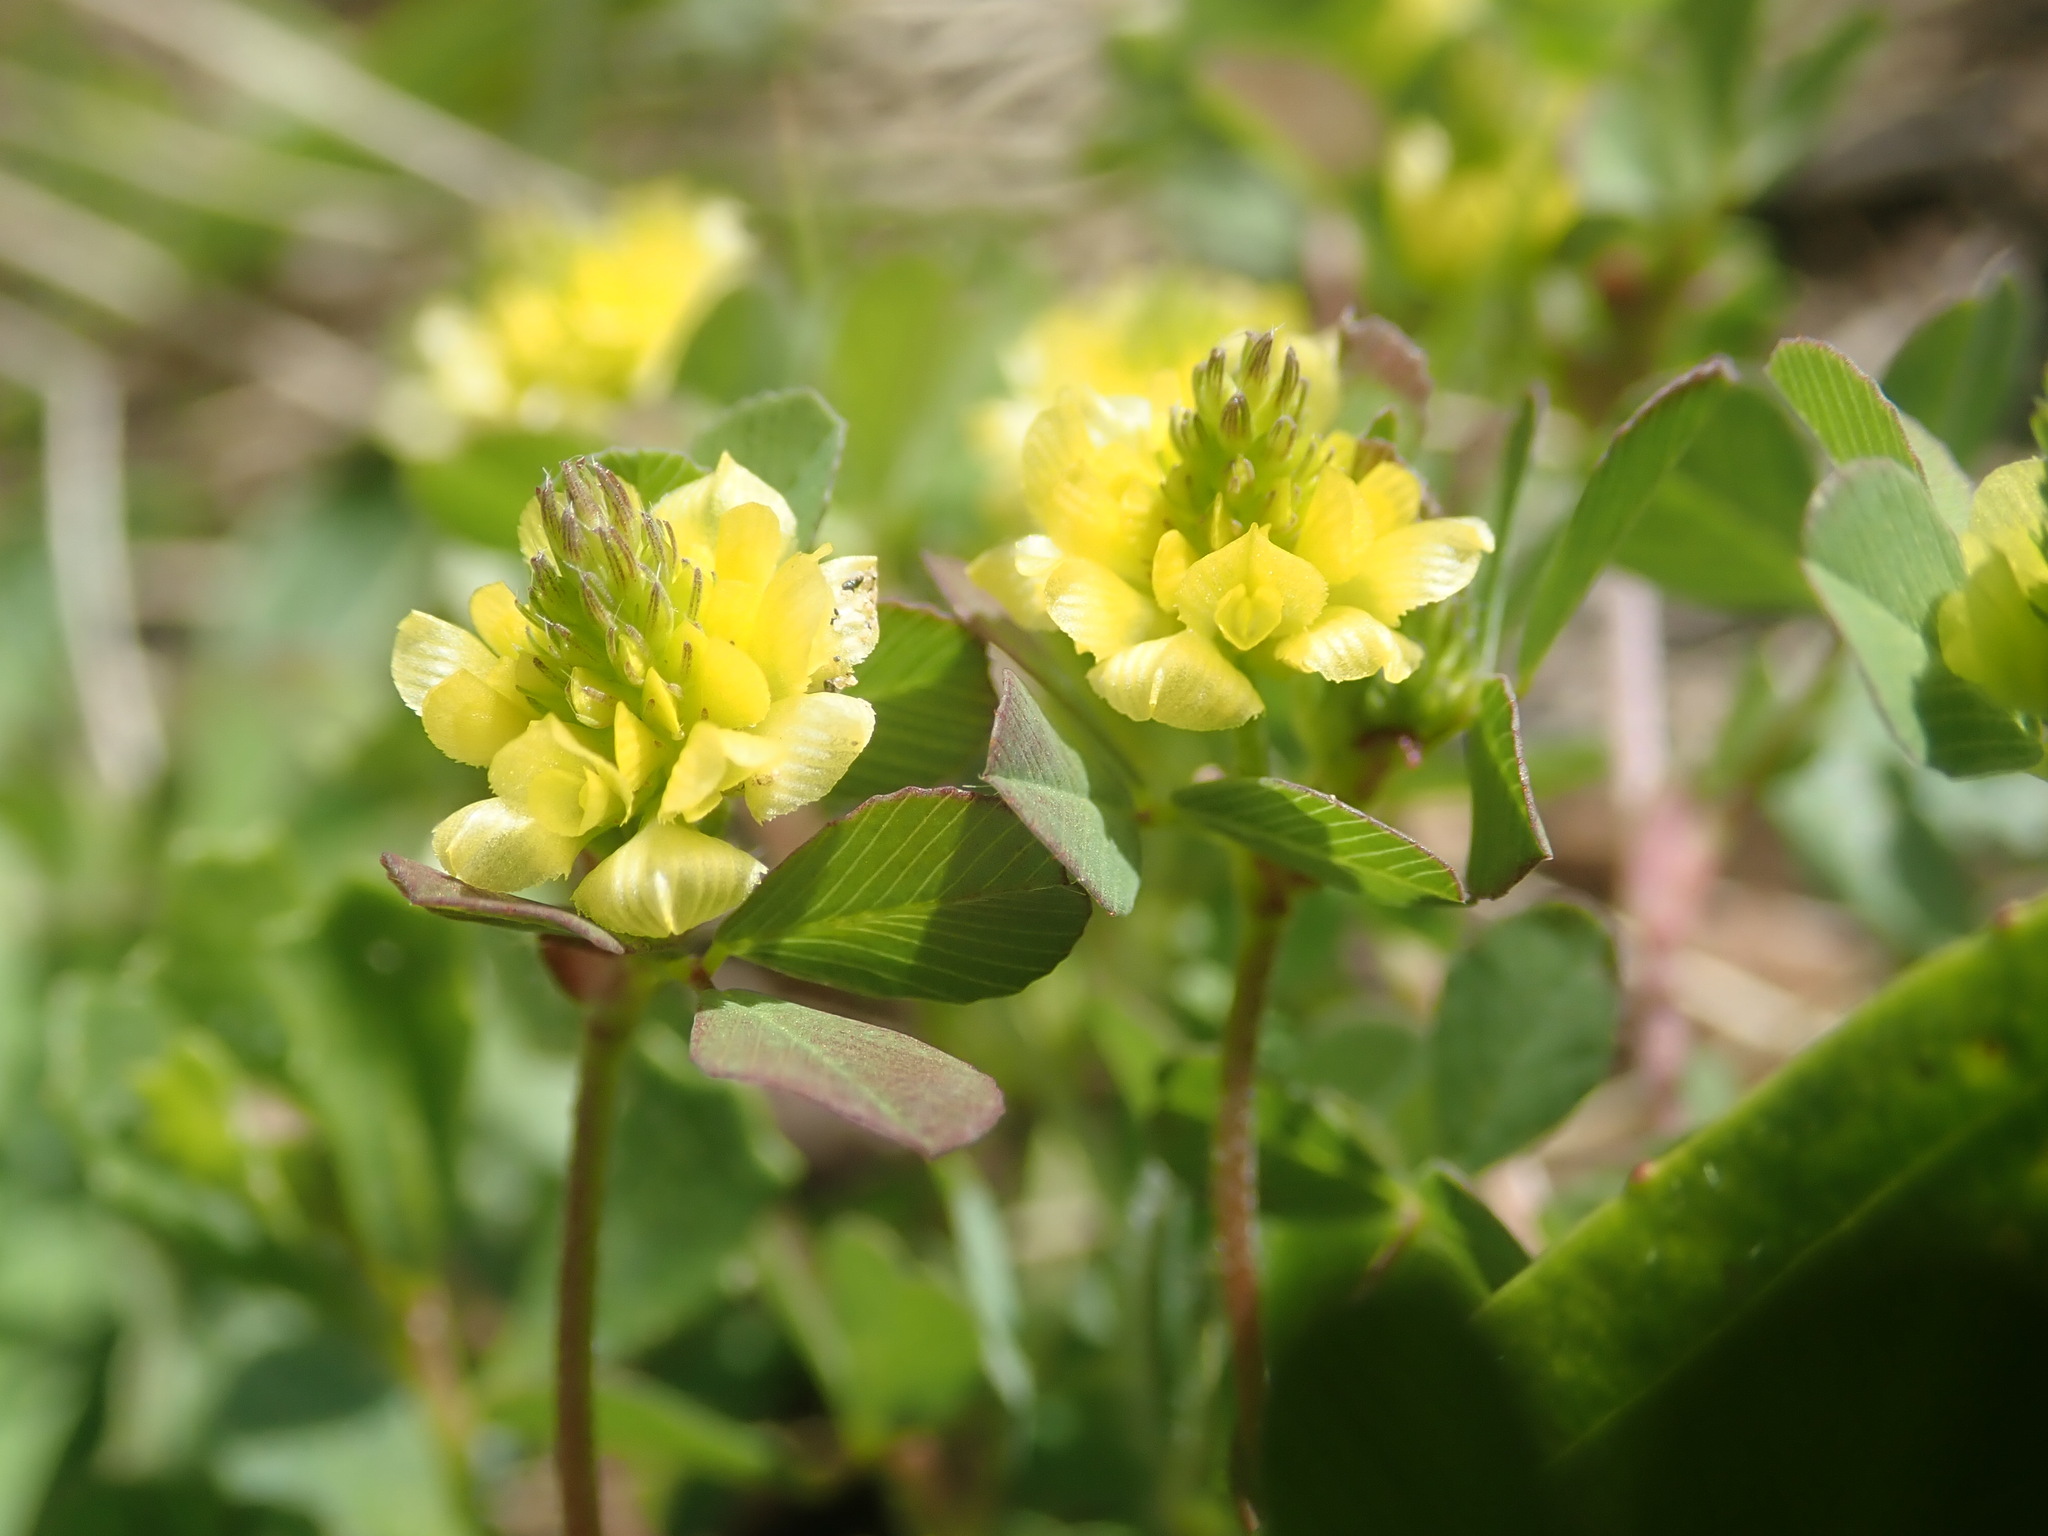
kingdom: Plantae
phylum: Tracheophyta
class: Magnoliopsida
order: Fabales
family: Fabaceae
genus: Trifolium
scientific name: Trifolium campestre
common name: Field clover
